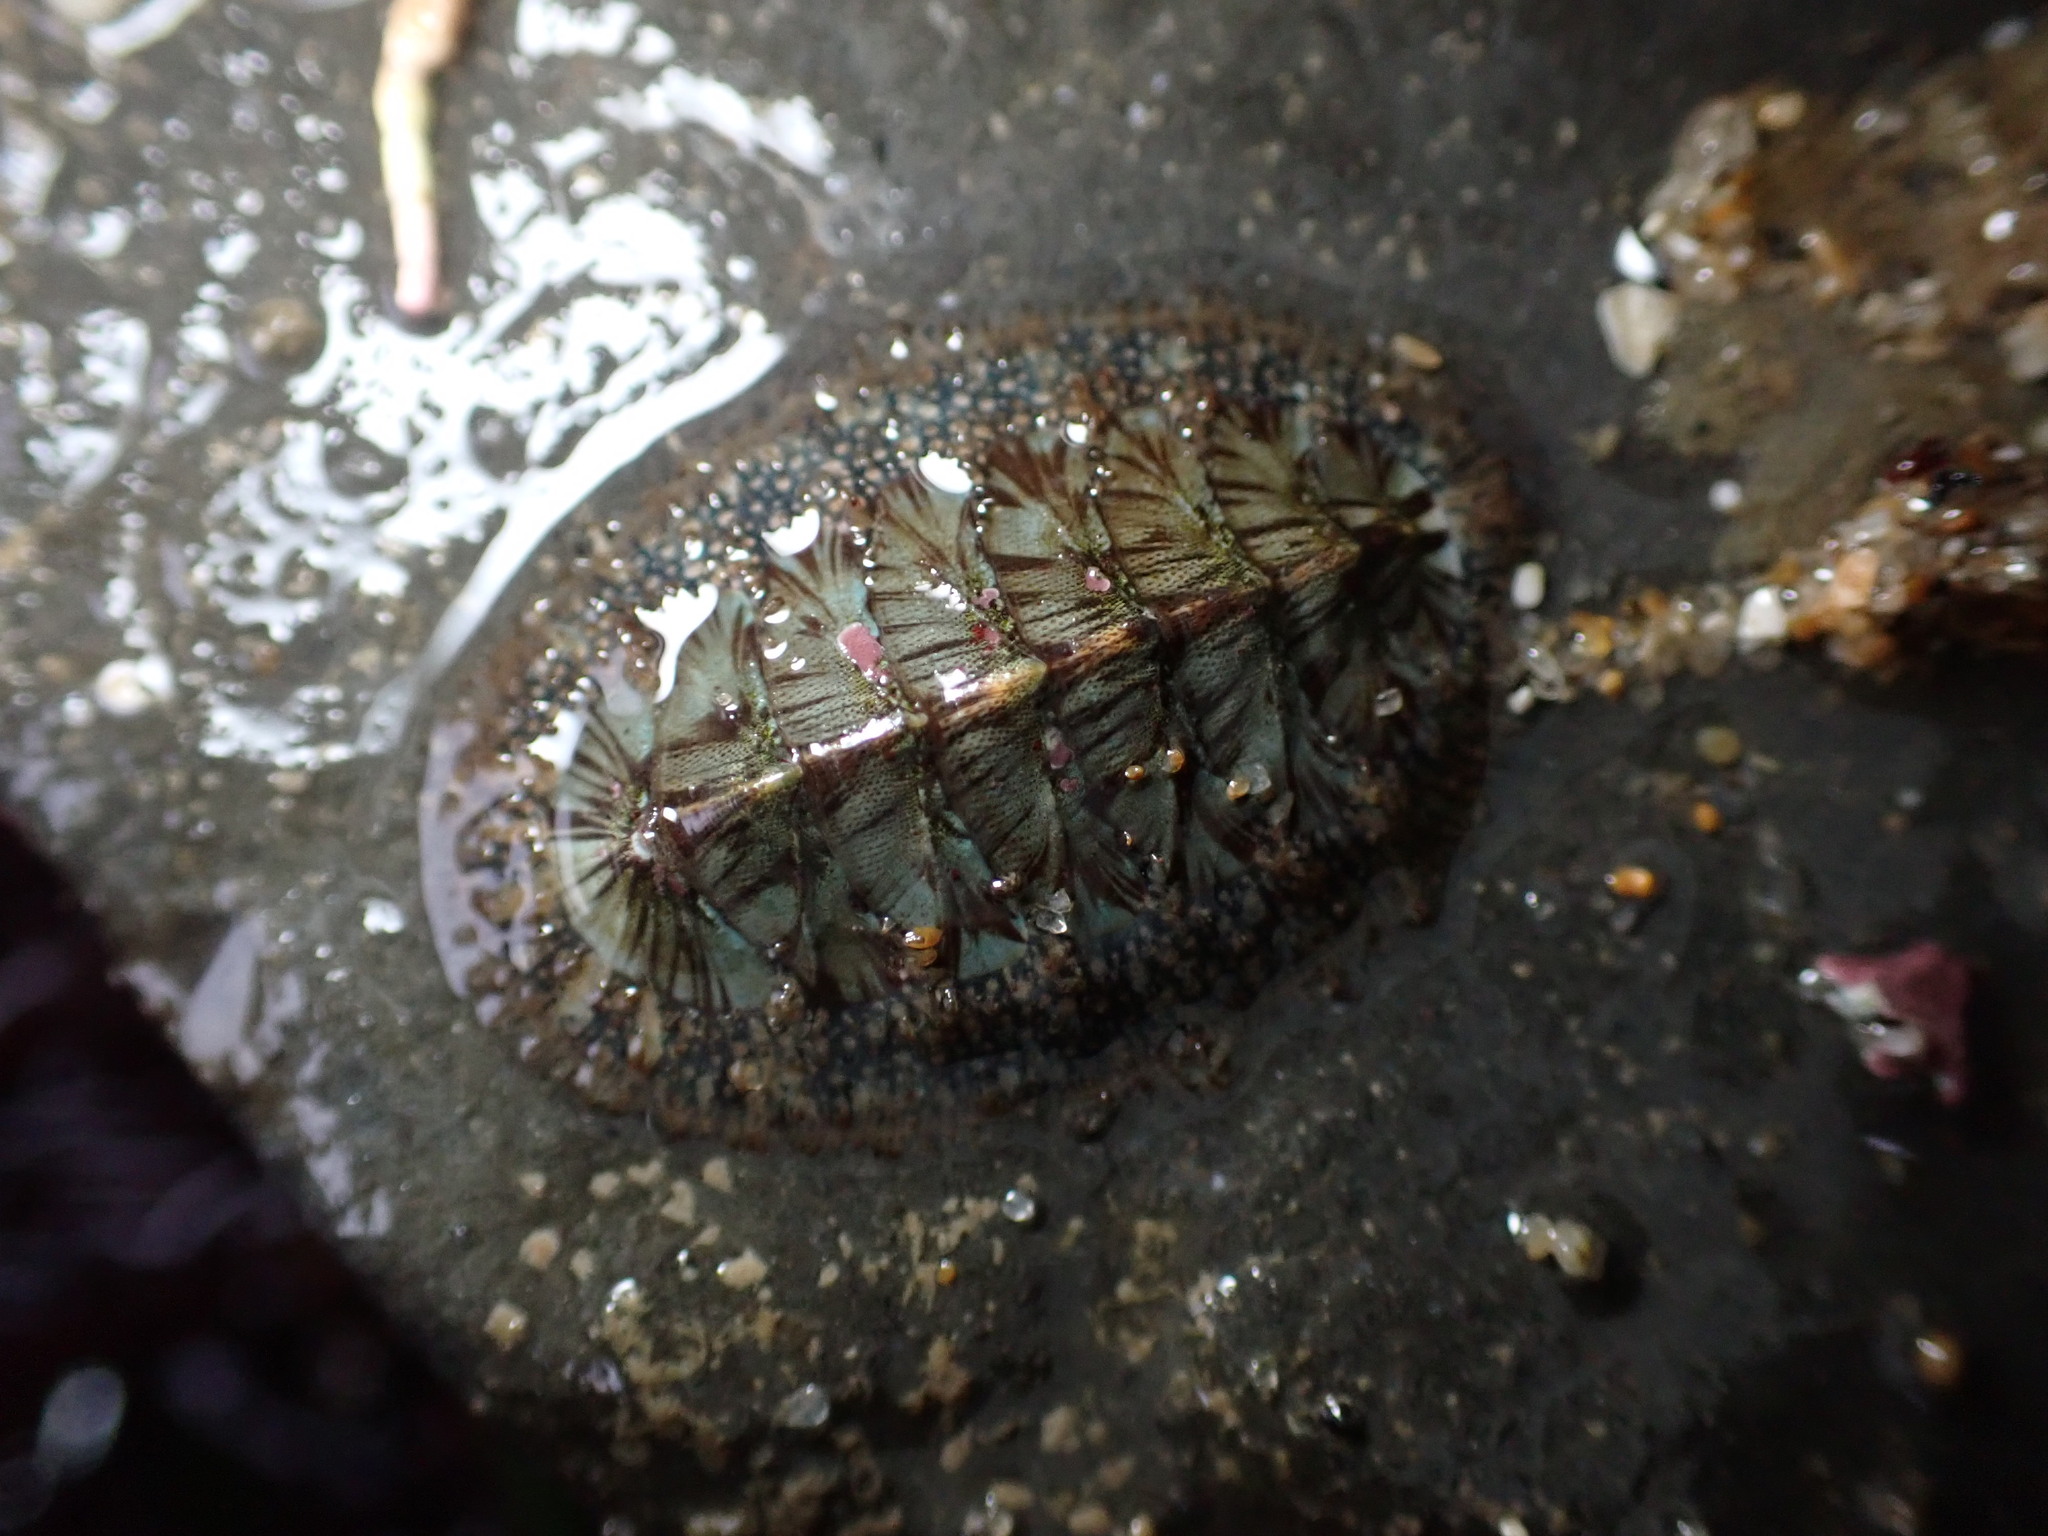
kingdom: Animalia
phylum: Mollusca
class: Polyplacophora
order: Chitonida
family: Mopaliidae
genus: Mopalia
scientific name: Mopalia lignosa
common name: Woody chiton
